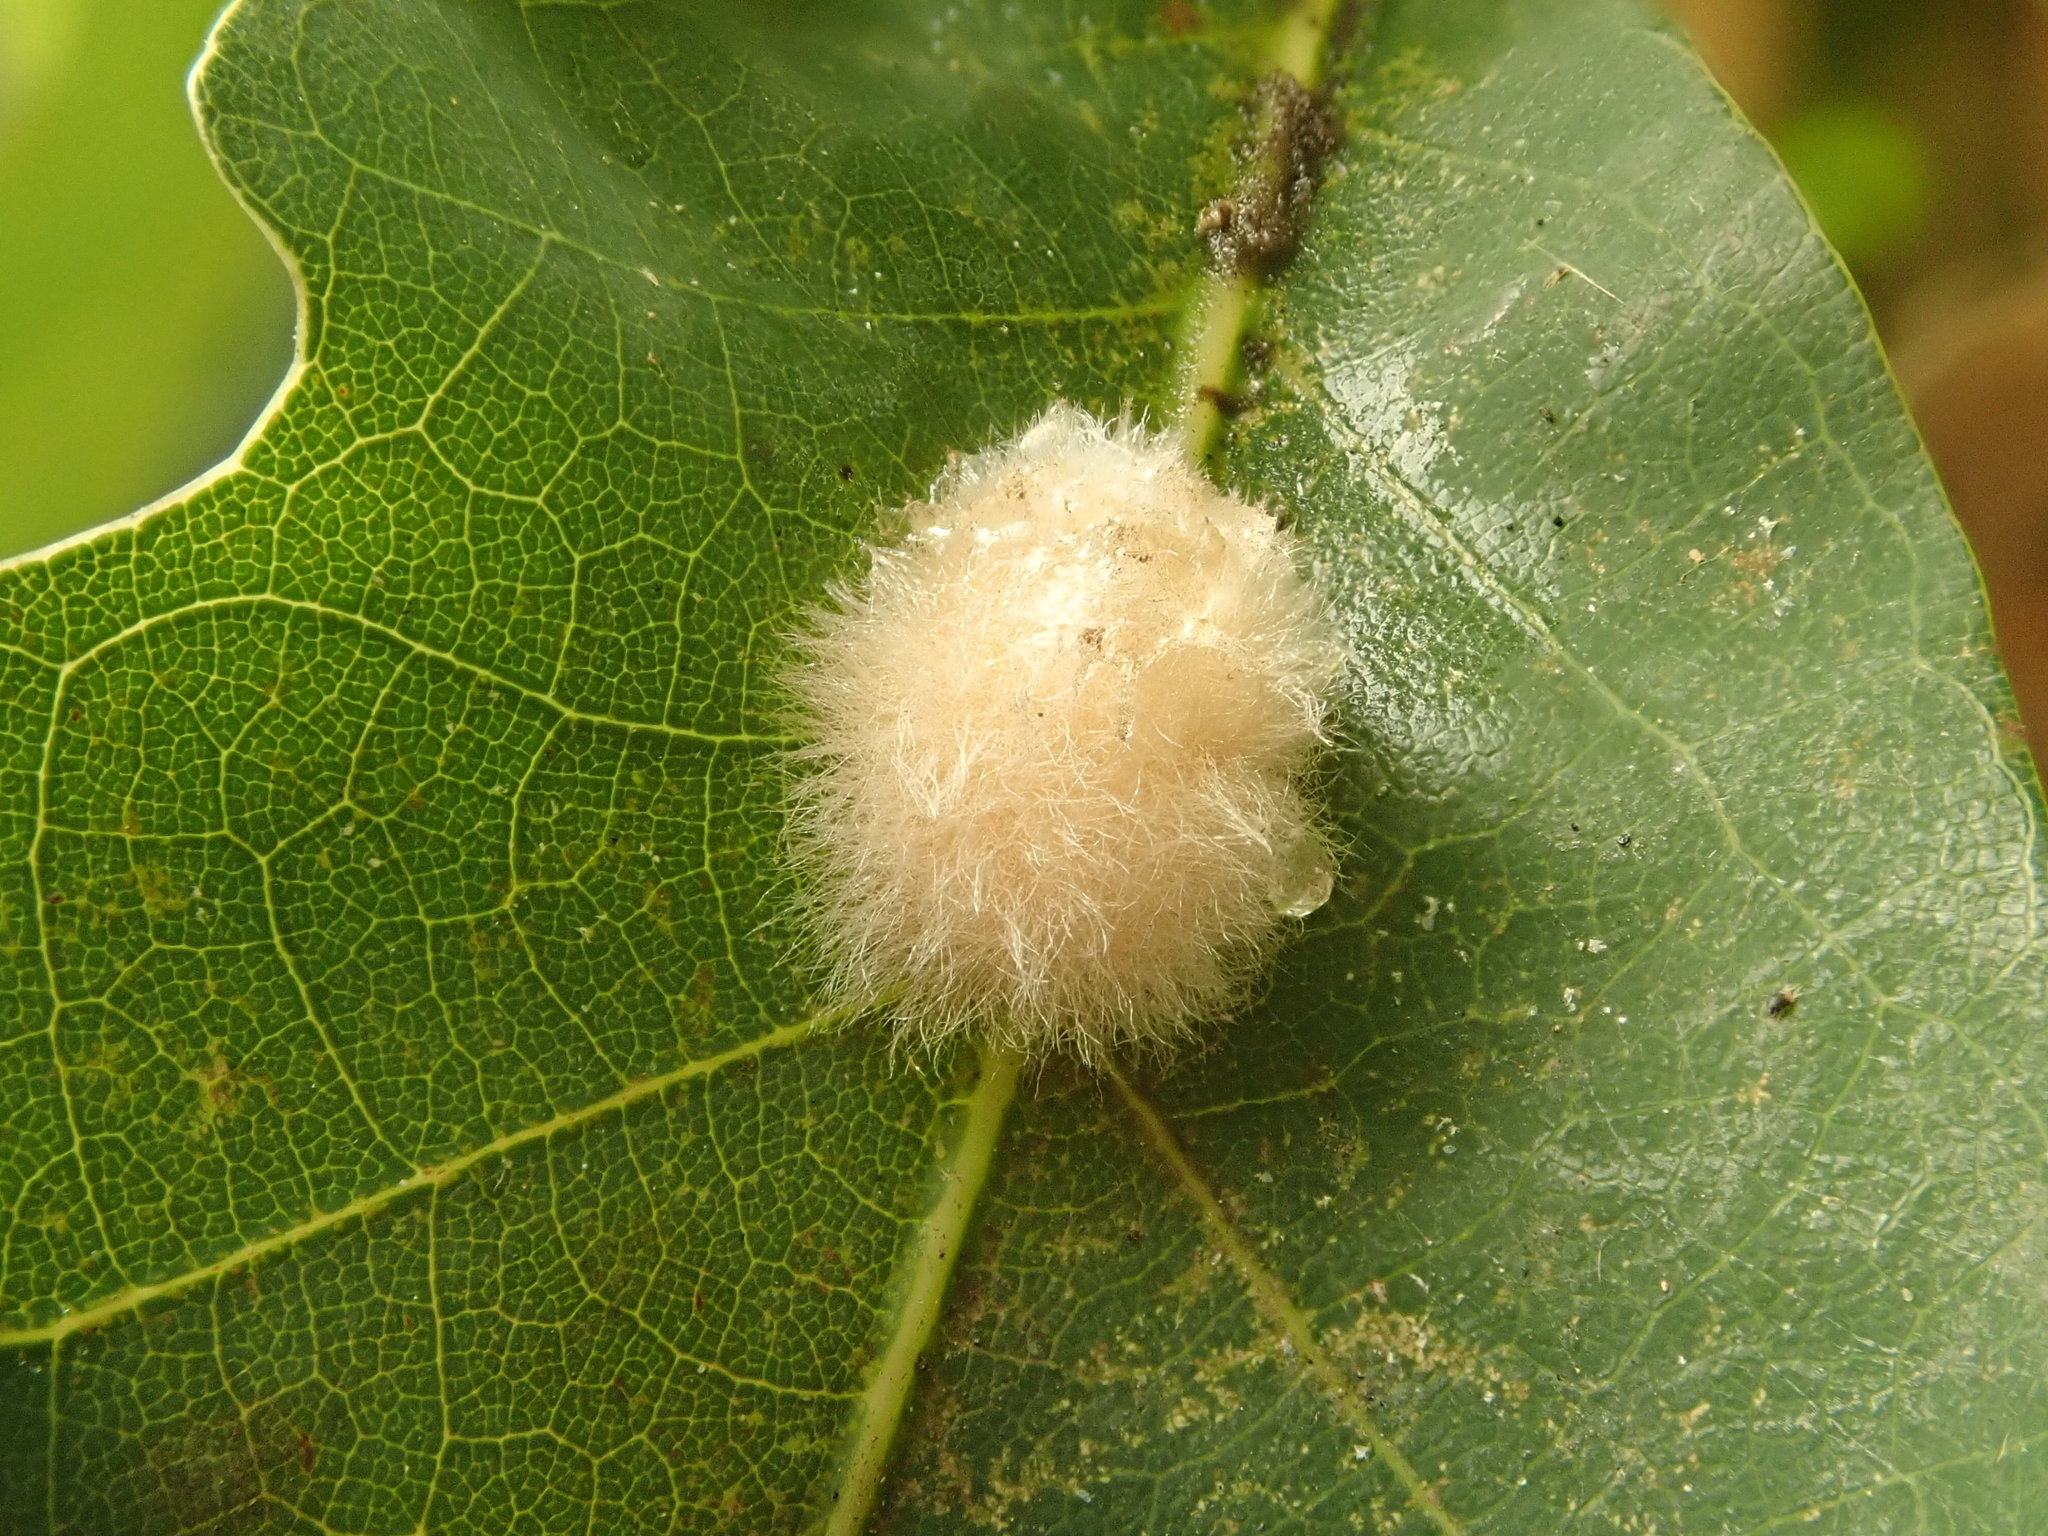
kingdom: Animalia
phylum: Arthropoda
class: Insecta
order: Hymenoptera
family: Cynipidae
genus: Andricus
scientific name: Andricus quercusflocci
